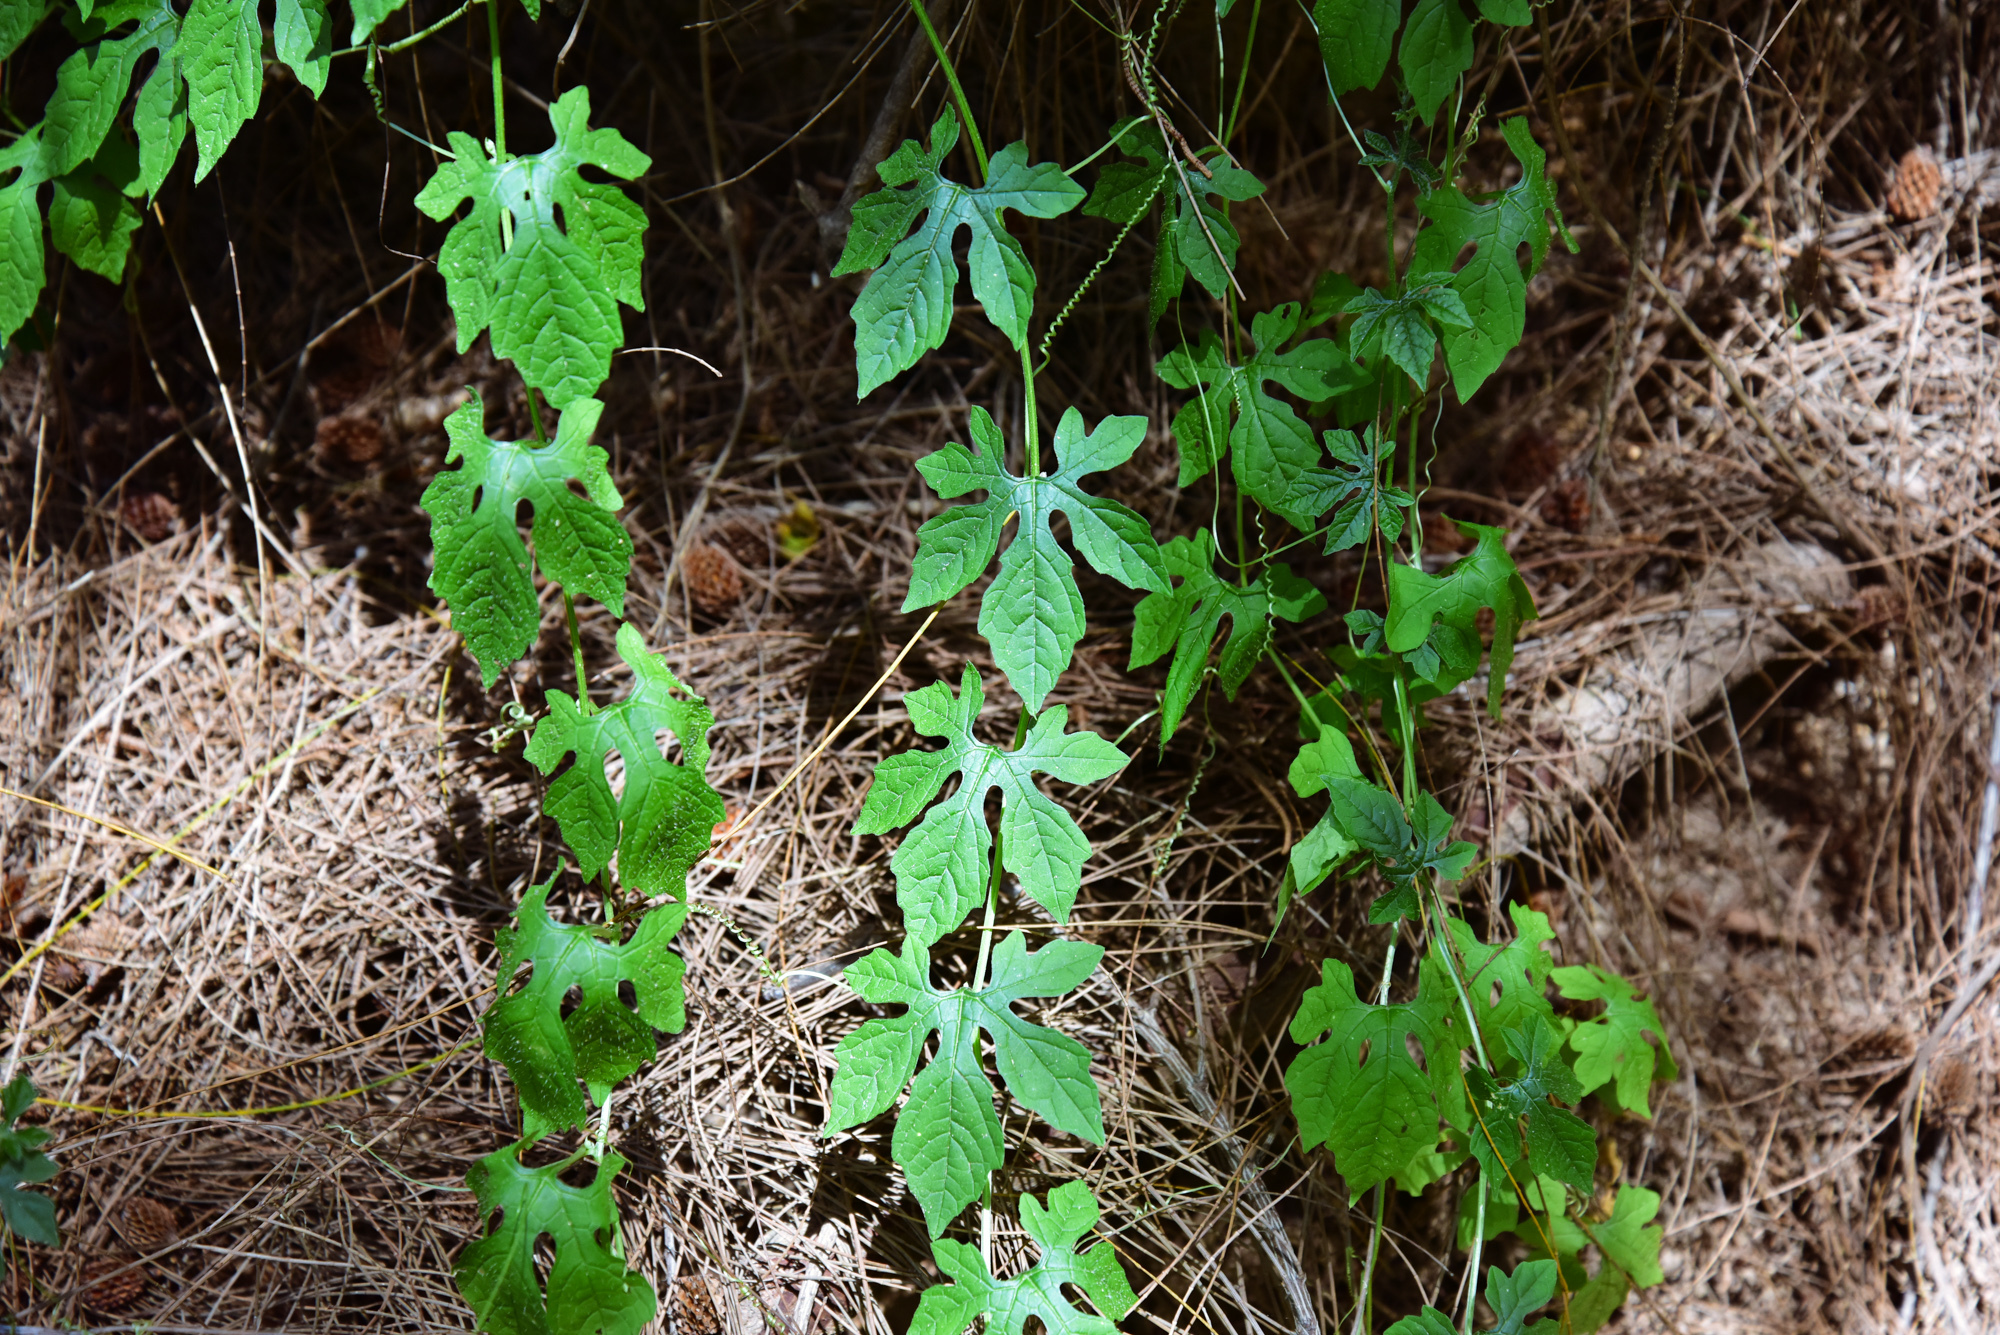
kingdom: Plantae
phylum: Tracheophyta
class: Magnoliopsida
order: Cucurbitales
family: Cucurbitaceae
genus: Momordica
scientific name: Momordica charantia
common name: Balsampear
